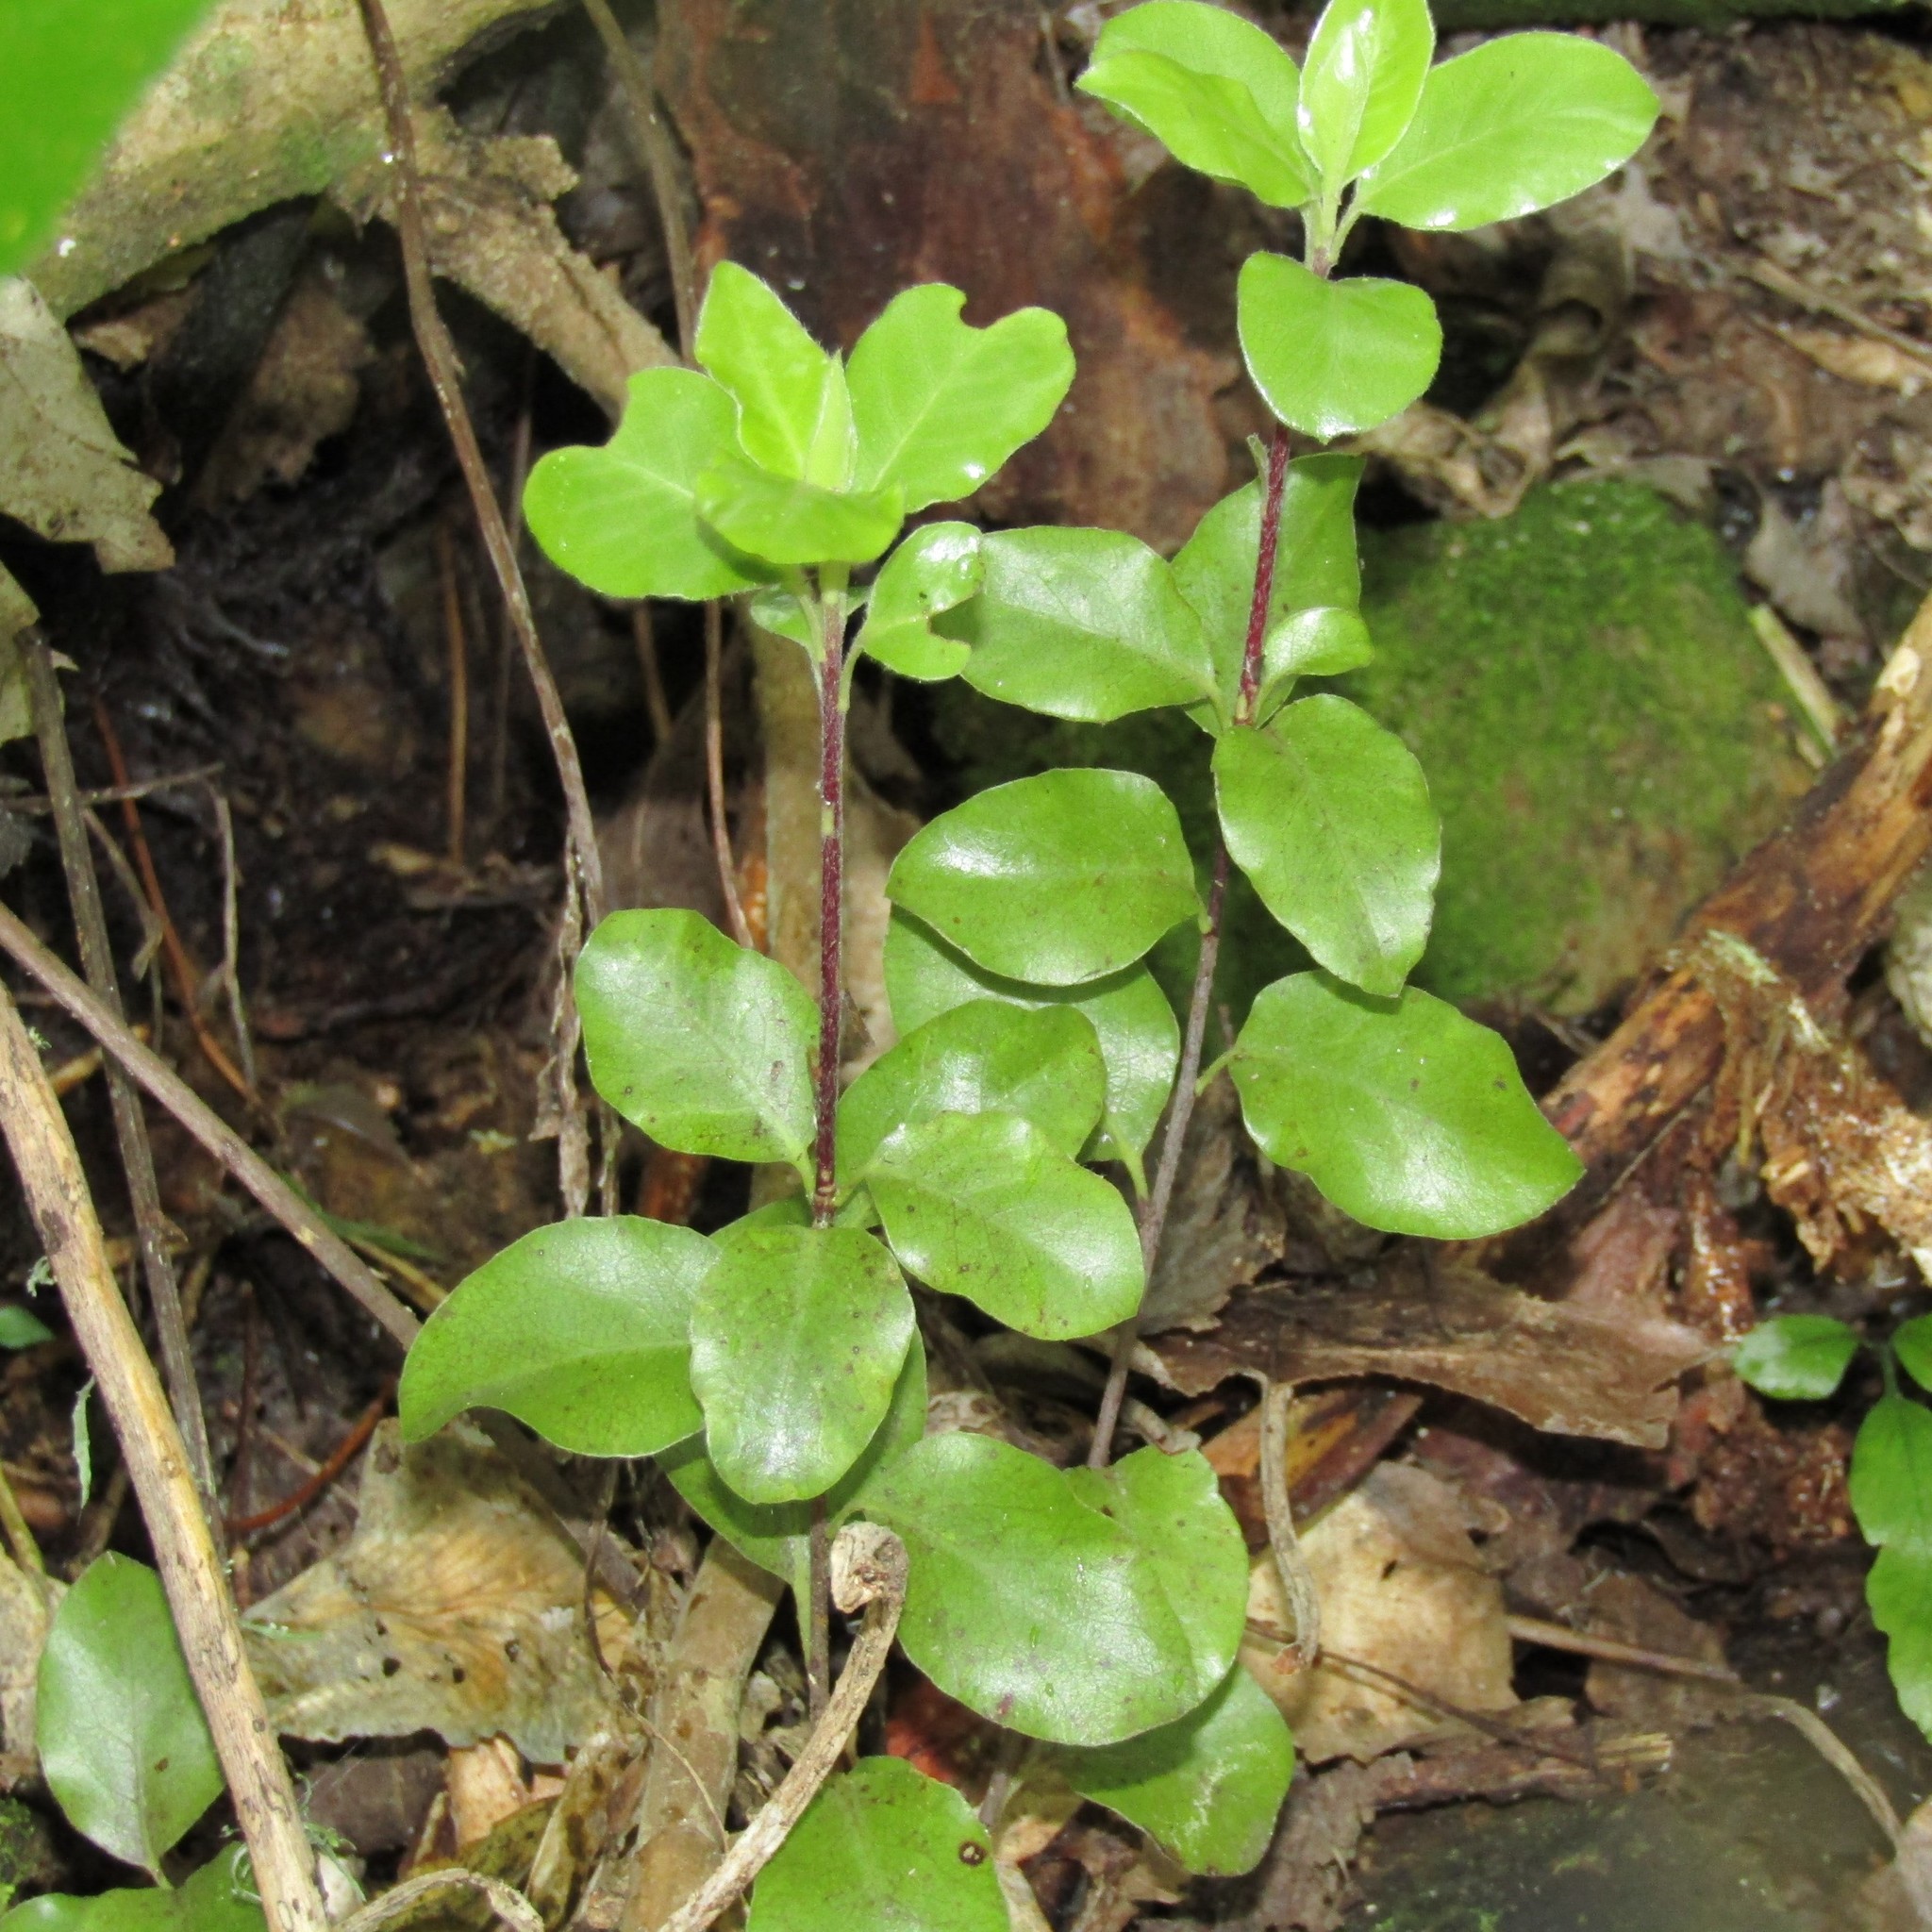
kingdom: Plantae
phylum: Tracheophyta
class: Magnoliopsida
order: Apiales
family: Pittosporaceae
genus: Pittosporum
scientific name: Pittosporum tenuifolium
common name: Kohuhu
